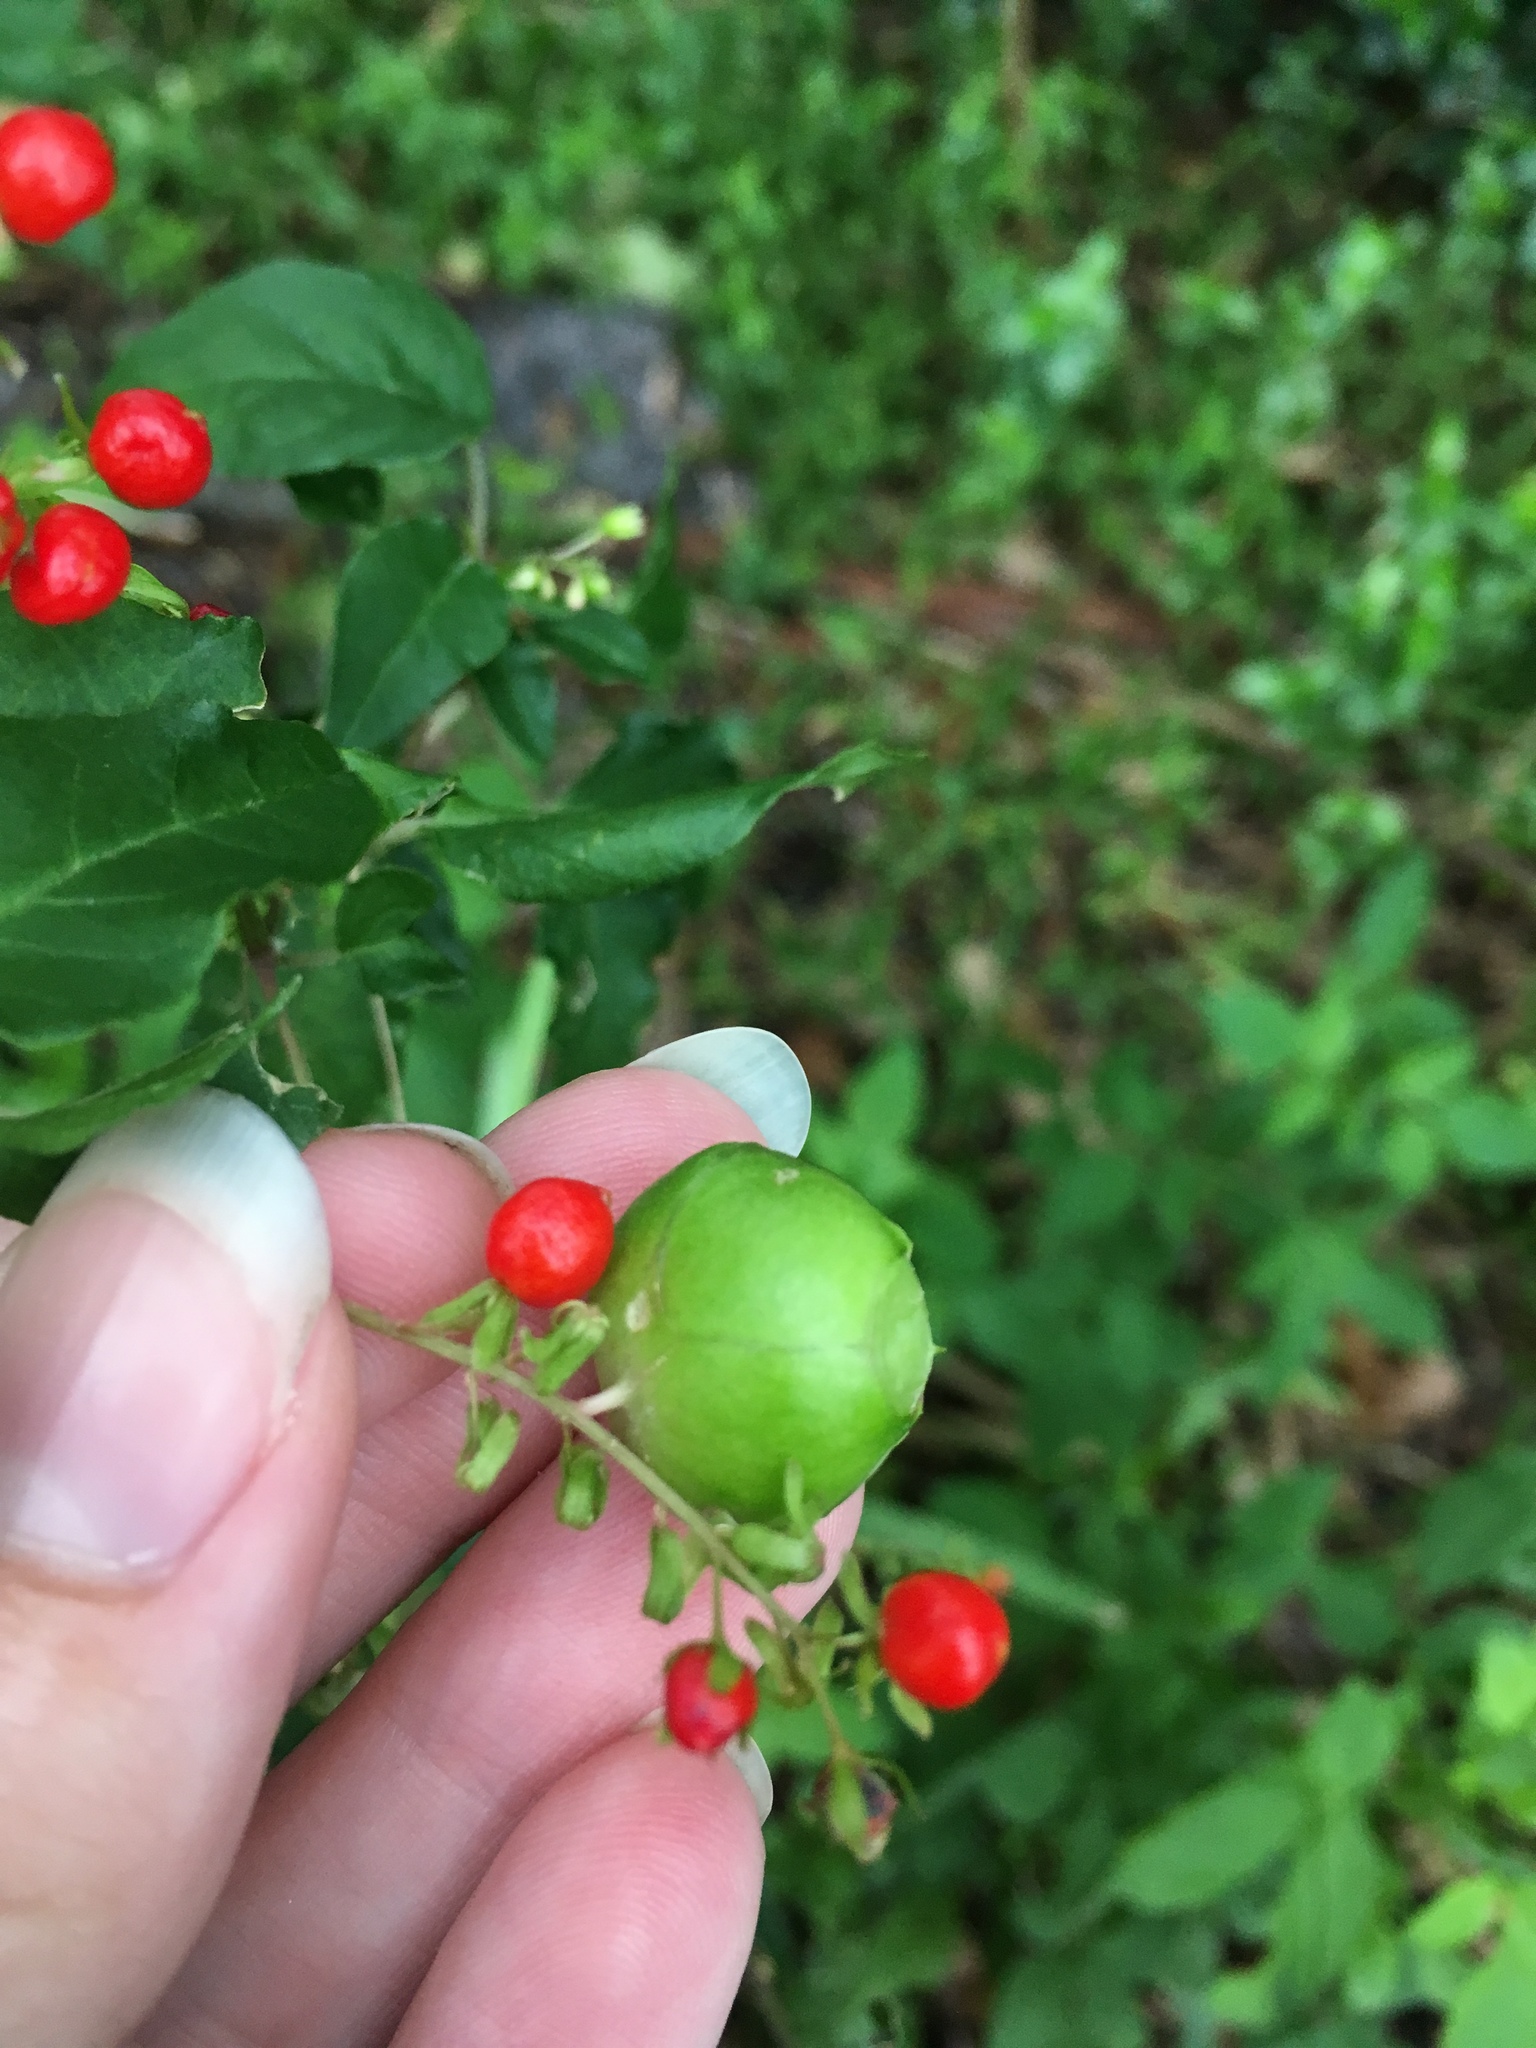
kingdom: Animalia
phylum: Arthropoda
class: Insecta
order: Diptera
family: Cecidomyiidae
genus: Schizomyia
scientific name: Schizomyia rivinae
